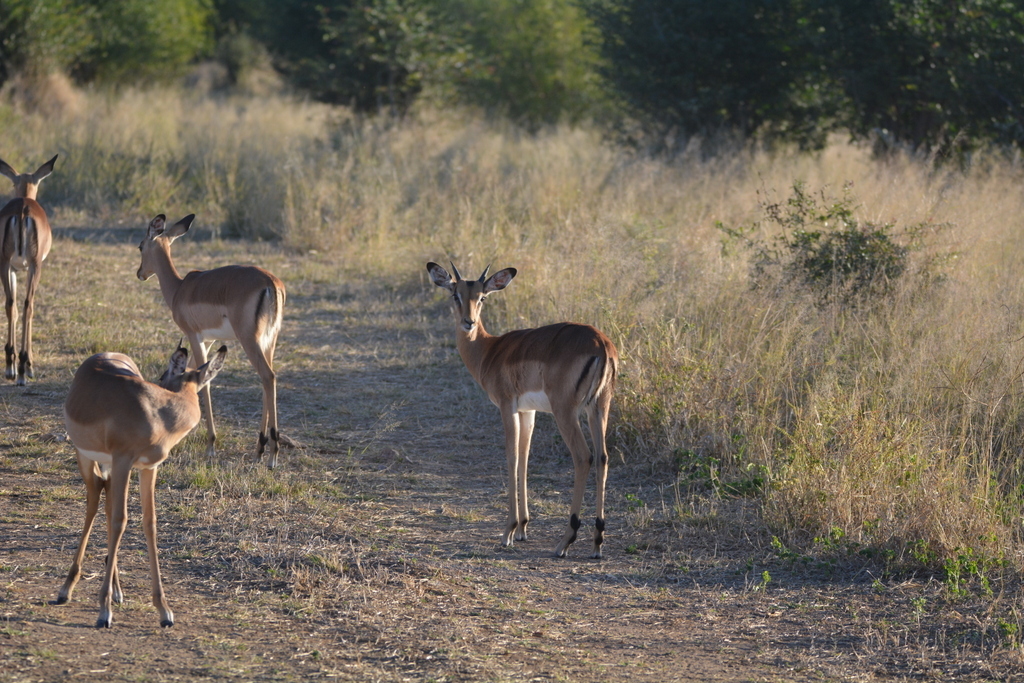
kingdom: Animalia
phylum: Chordata
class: Mammalia
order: Artiodactyla
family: Bovidae
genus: Aepyceros
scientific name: Aepyceros melampus
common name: Impala
